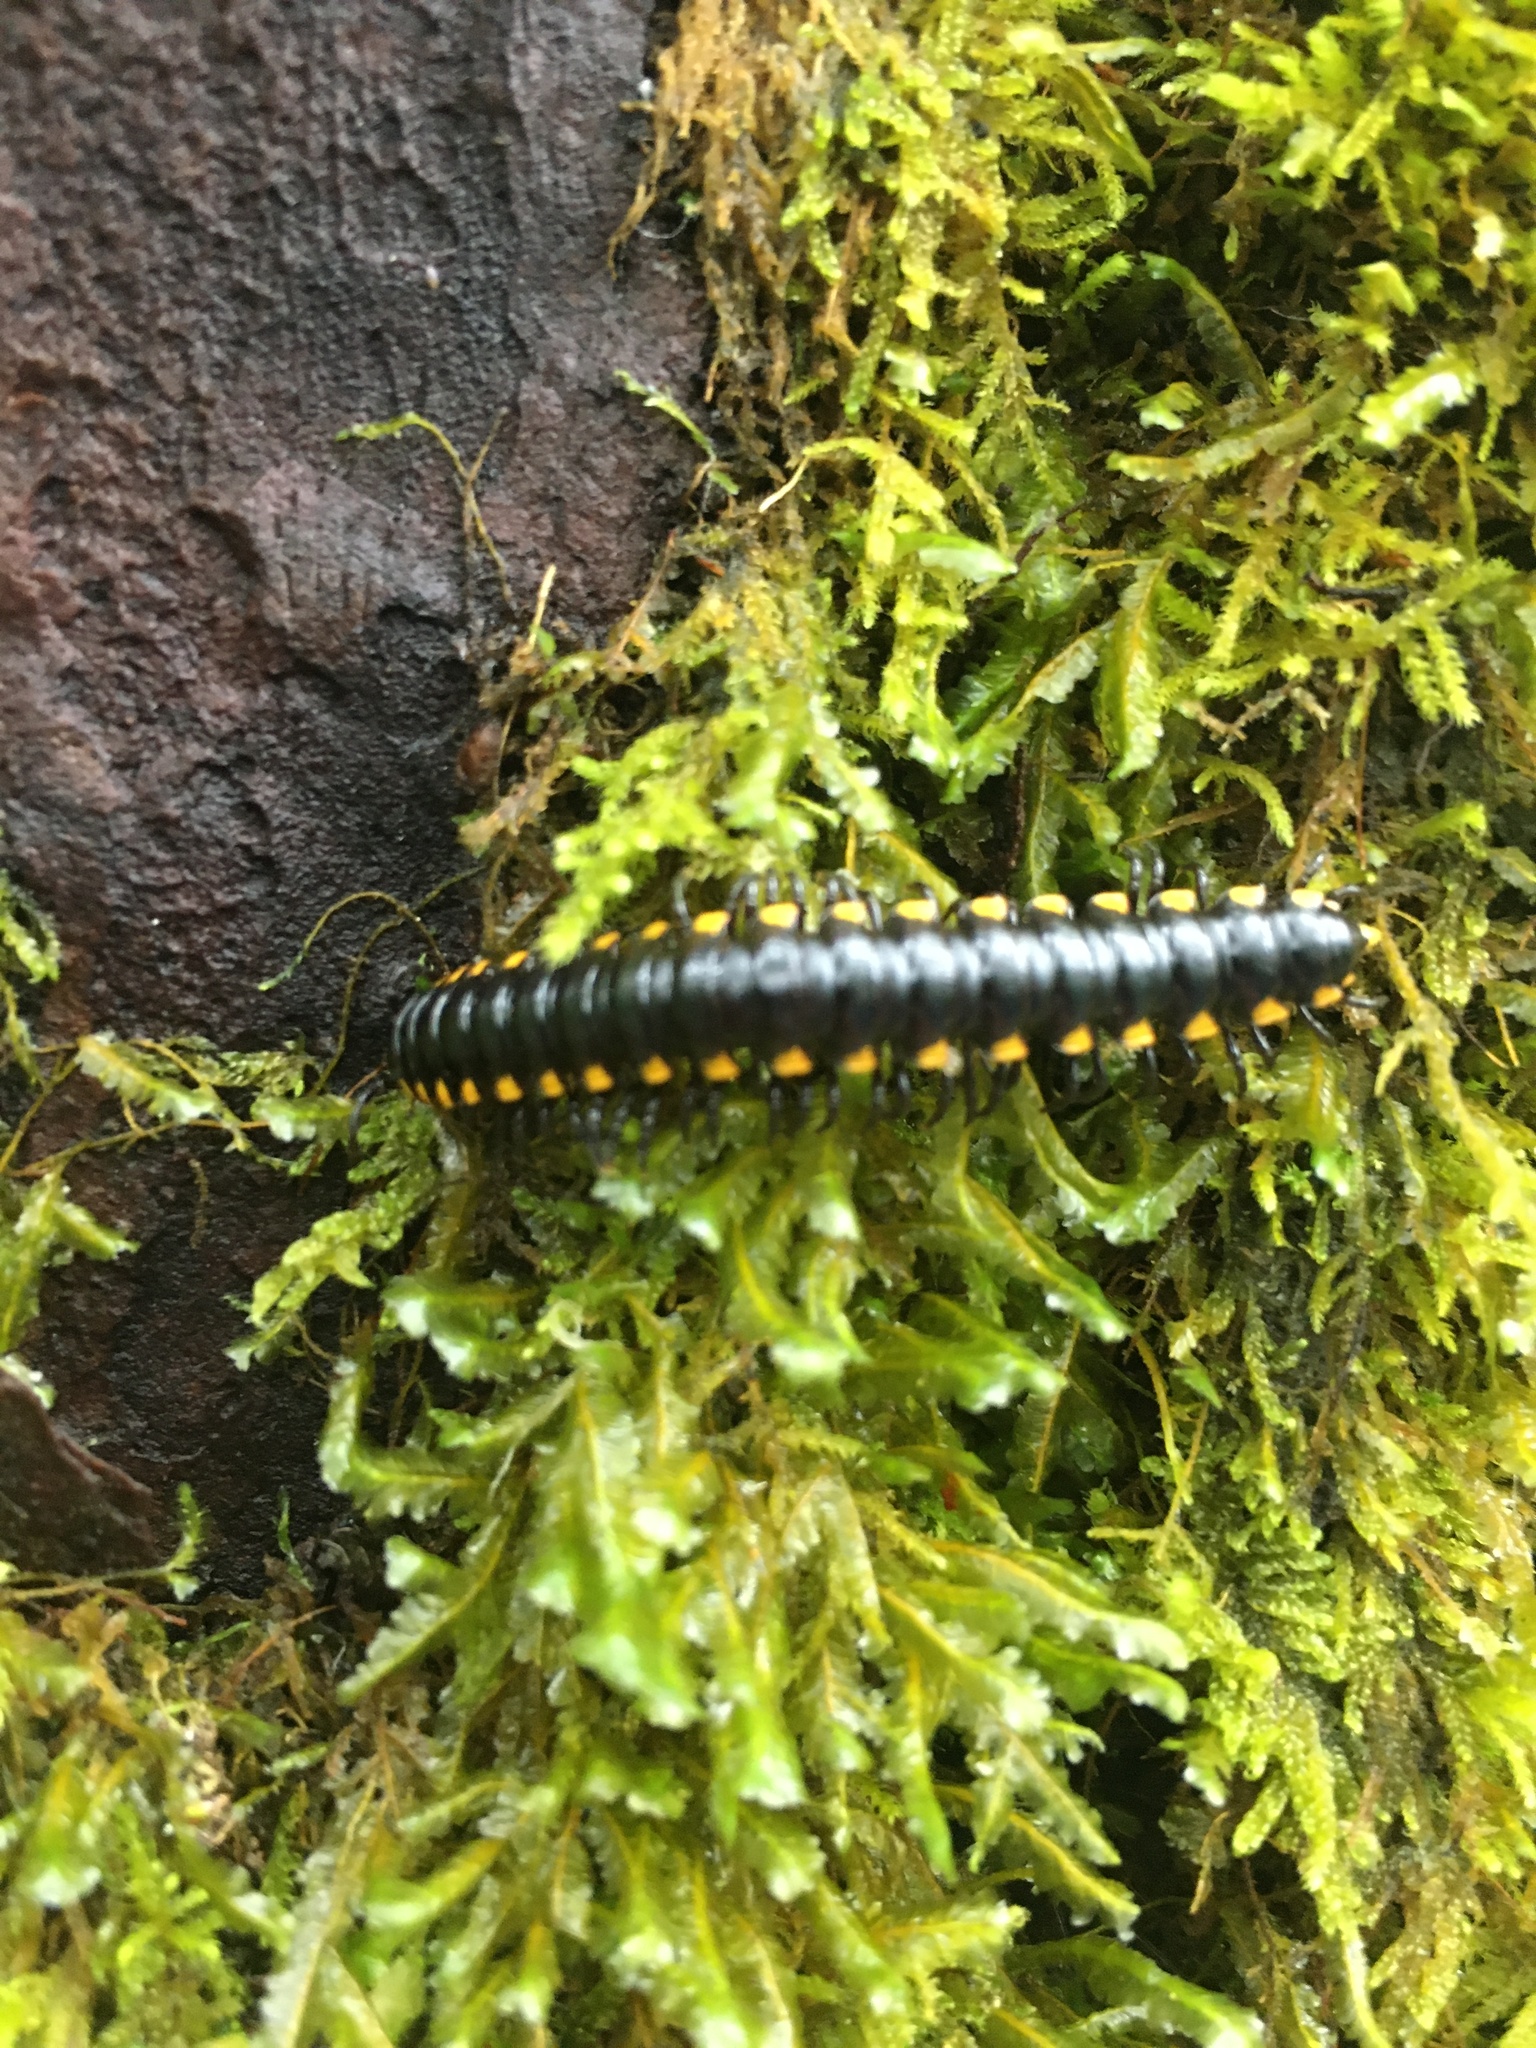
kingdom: Animalia
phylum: Arthropoda
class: Diplopoda
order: Polydesmida
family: Xystodesmidae
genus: Harpaphe
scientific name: Harpaphe haydeniana
